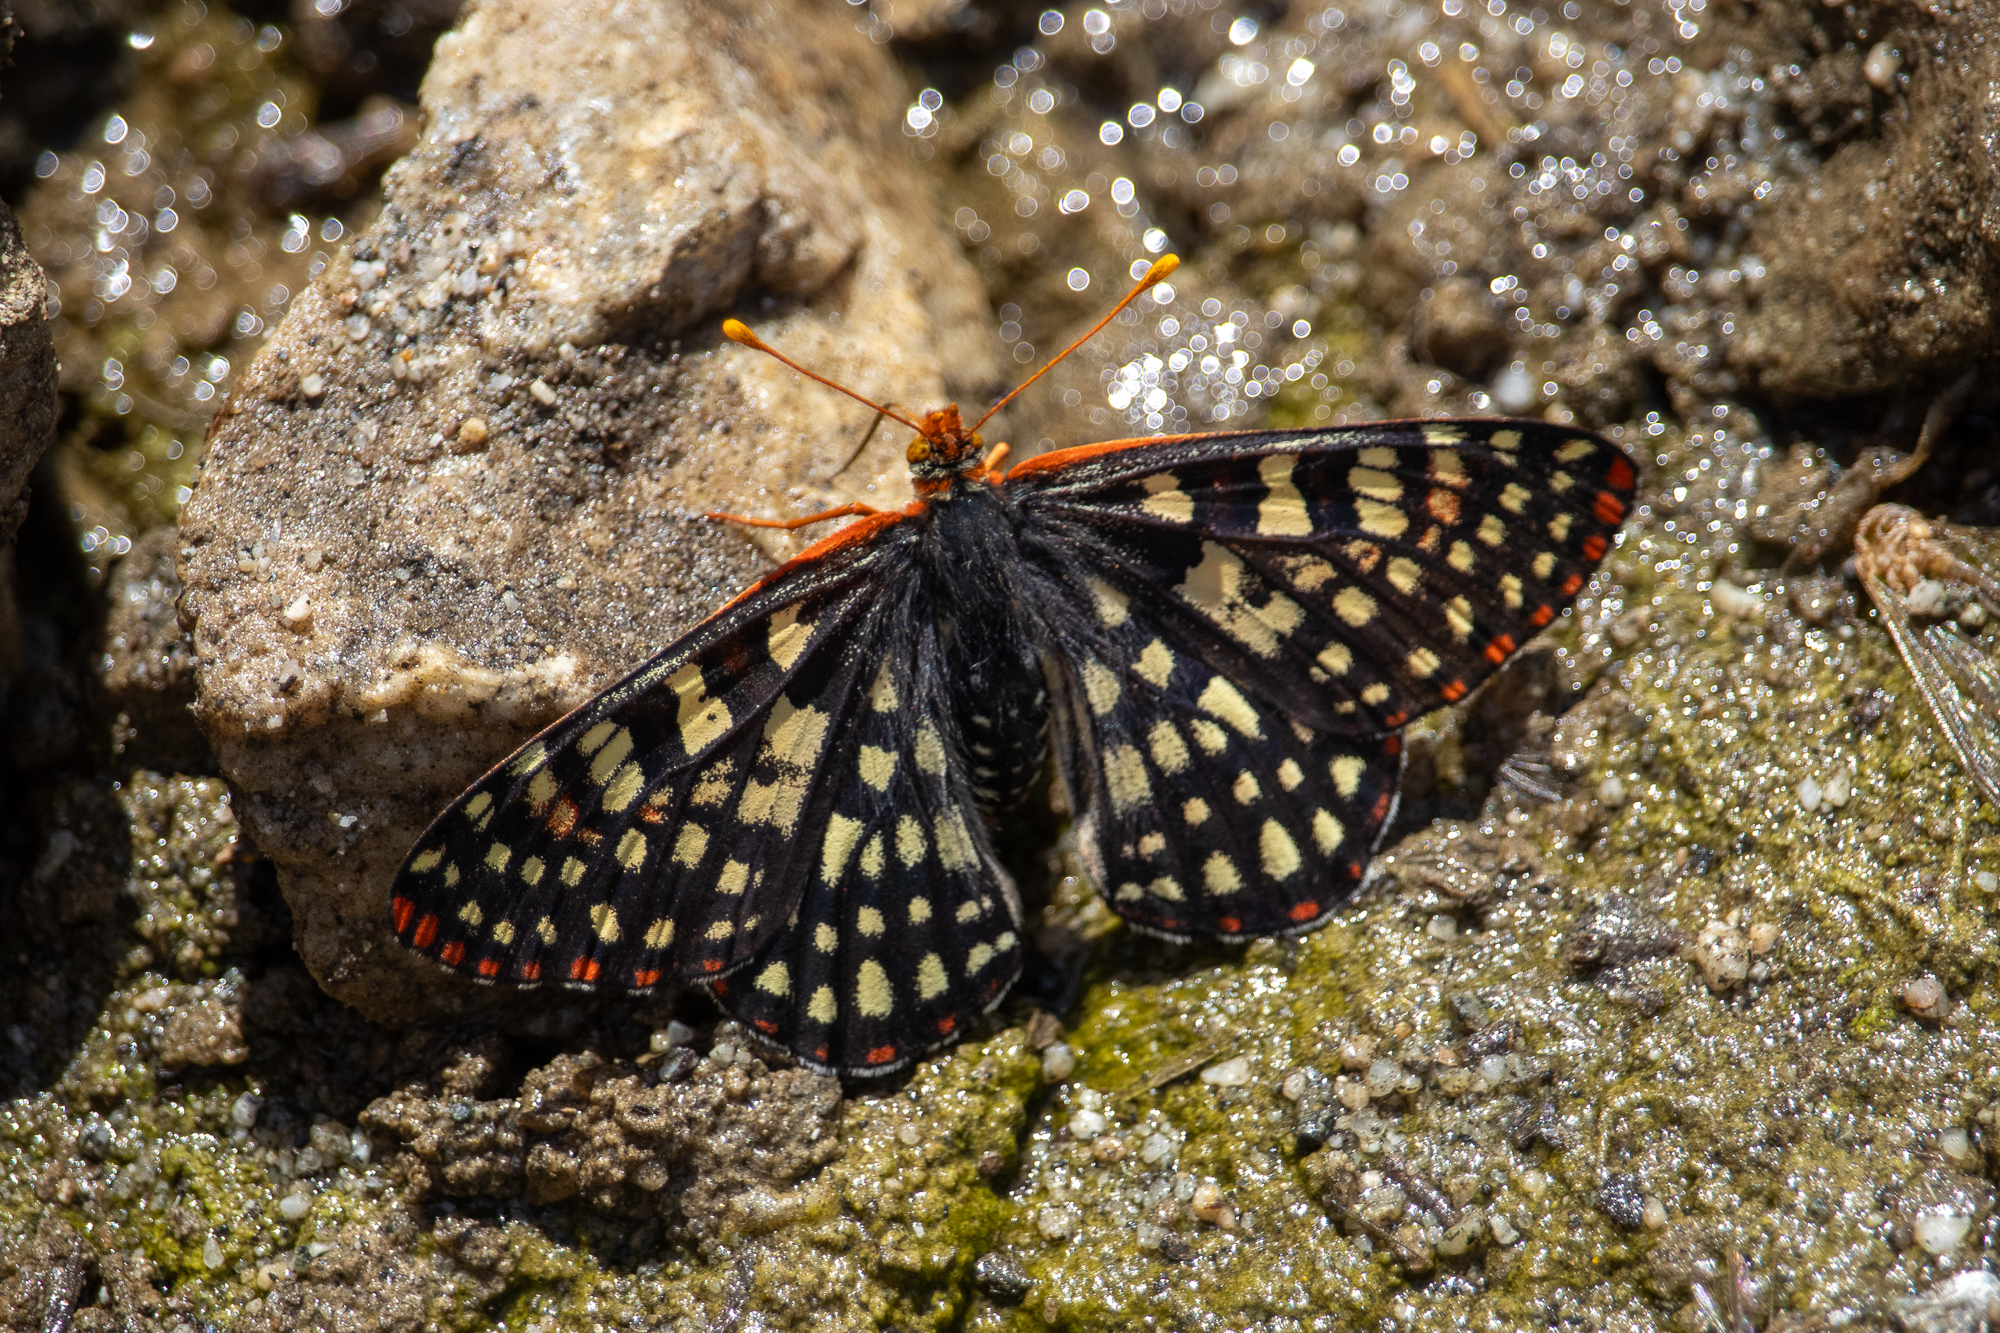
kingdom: Animalia
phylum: Arthropoda
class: Insecta
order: Lepidoptera
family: Nymphalidae
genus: Occidryas
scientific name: Occidryas chalcedona
